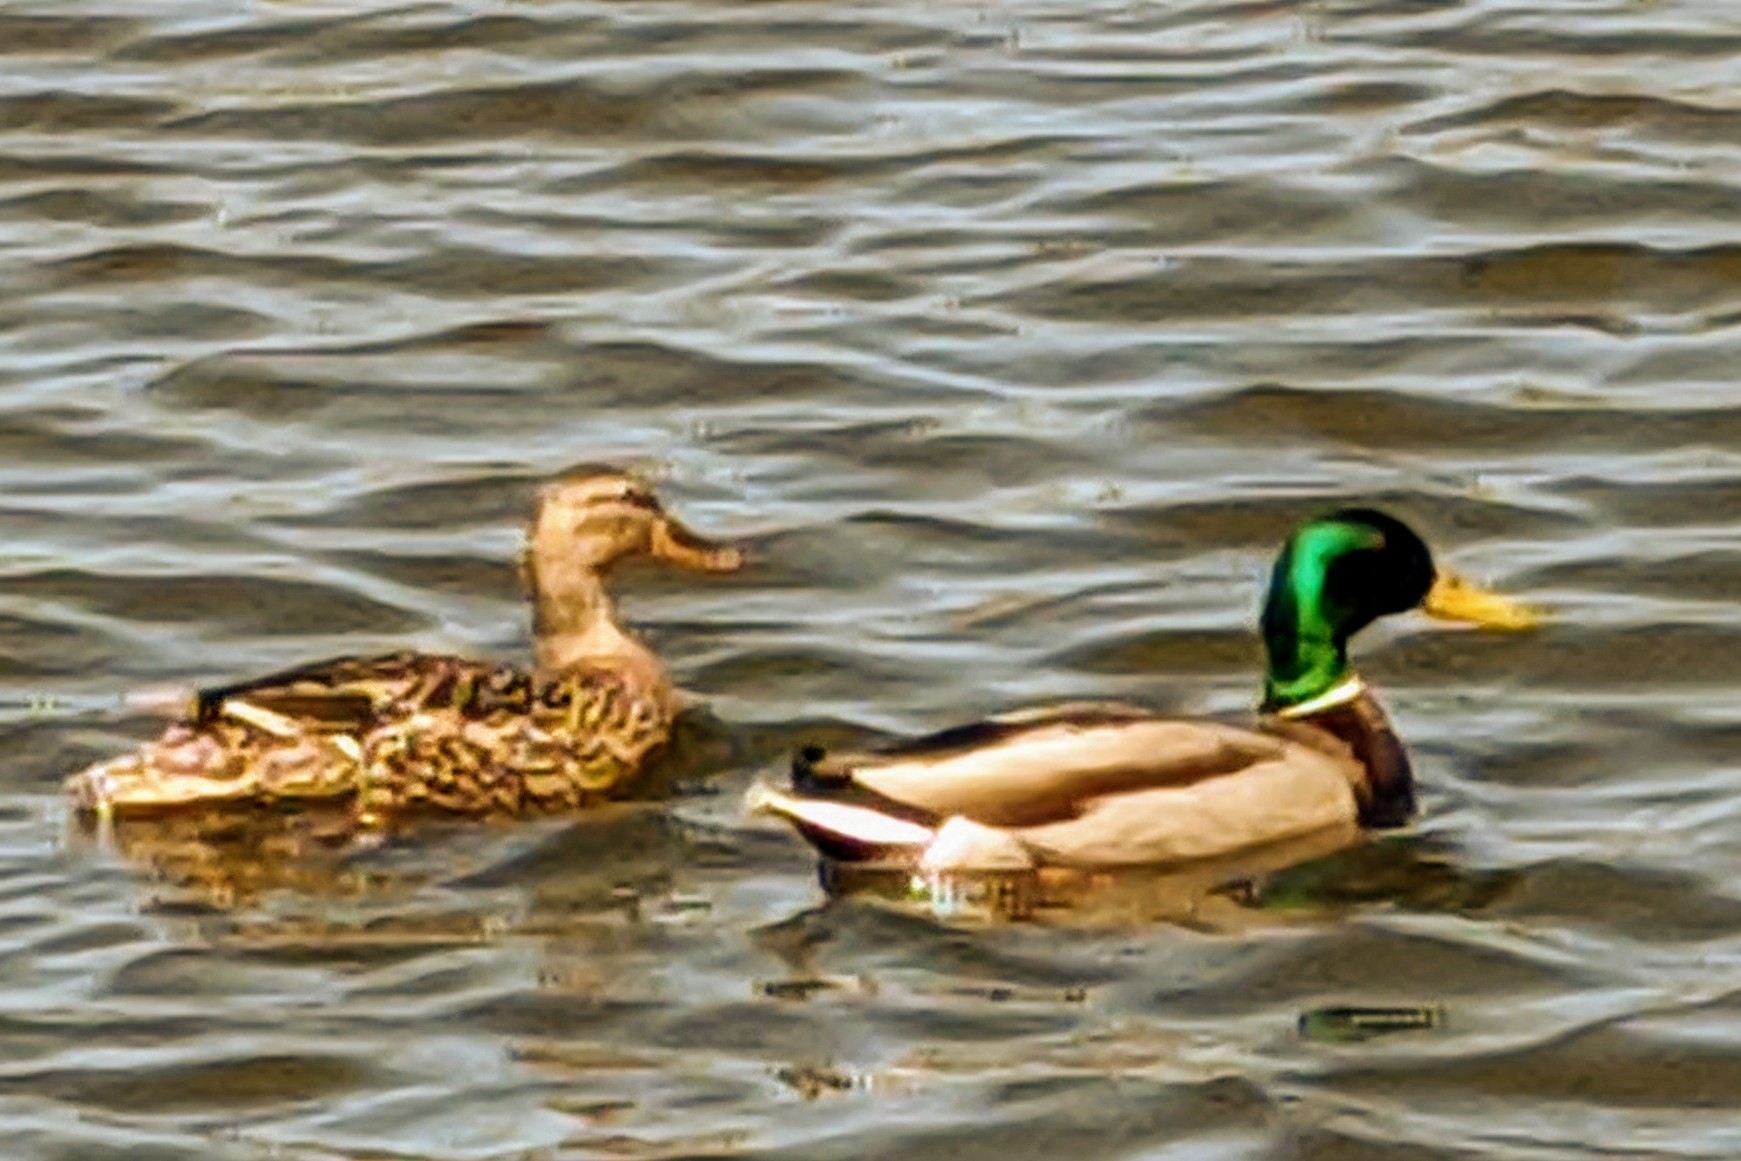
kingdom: Animalia
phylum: Chordata
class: Aves
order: Anseriformes
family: Anatidae
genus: Anas
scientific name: Anas platyrhynchos
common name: Mallard
